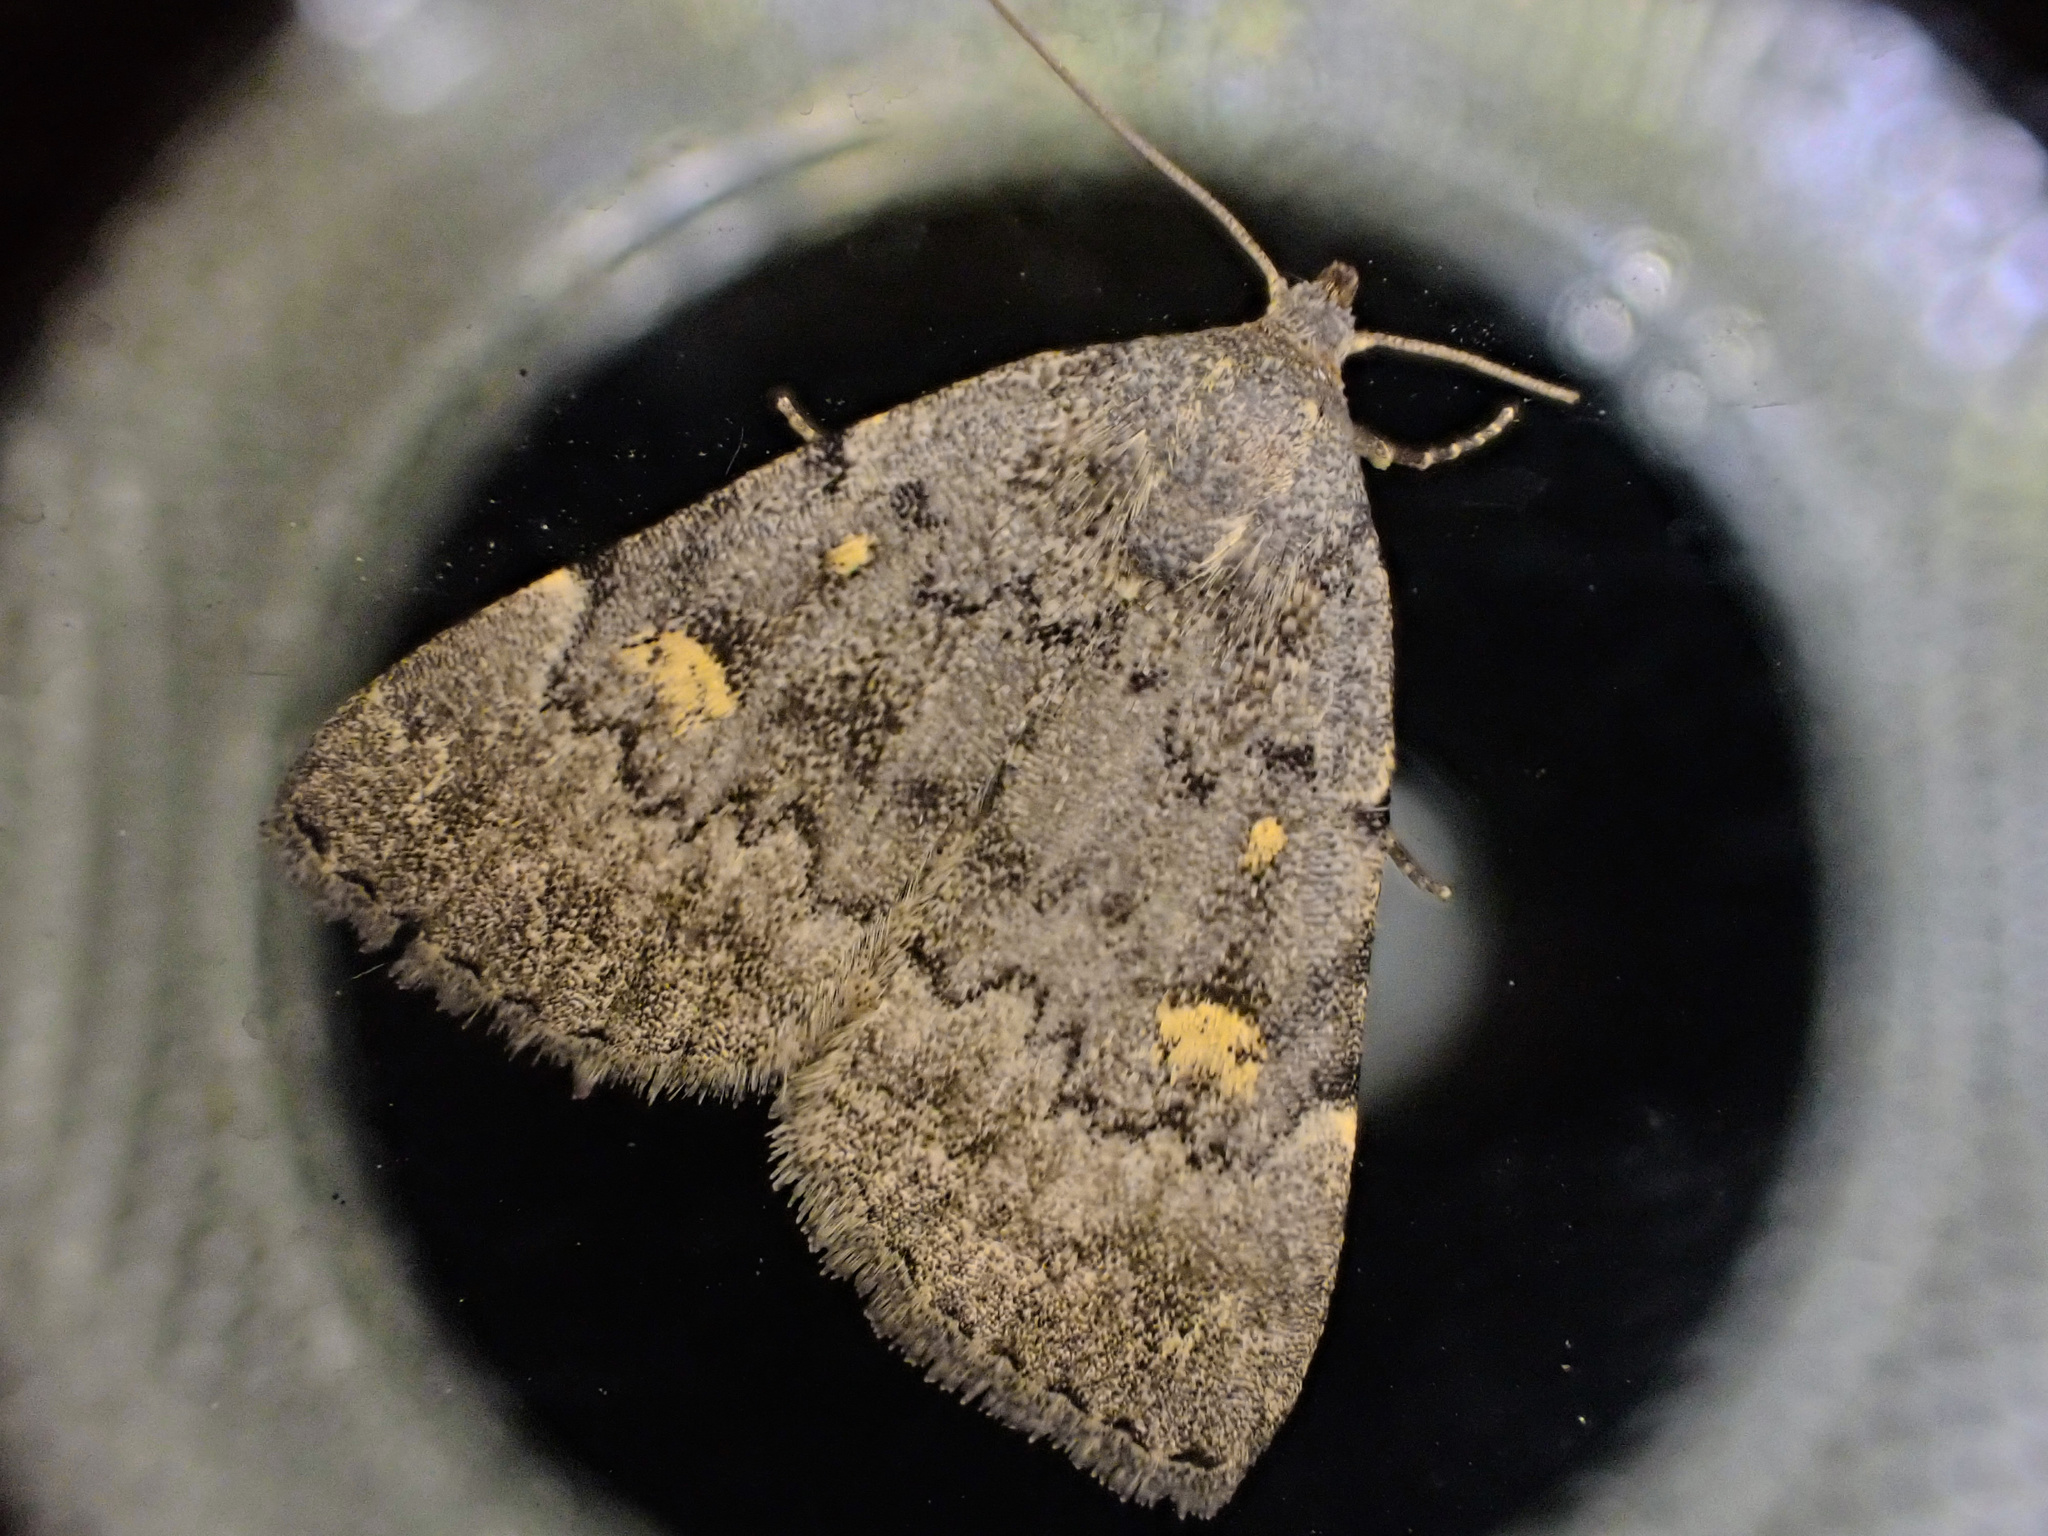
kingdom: Animalia
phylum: Arthropoda
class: Insecta
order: Lepidoptera
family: Erebidae
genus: Idia
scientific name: Idia aemula
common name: Common idia moth
